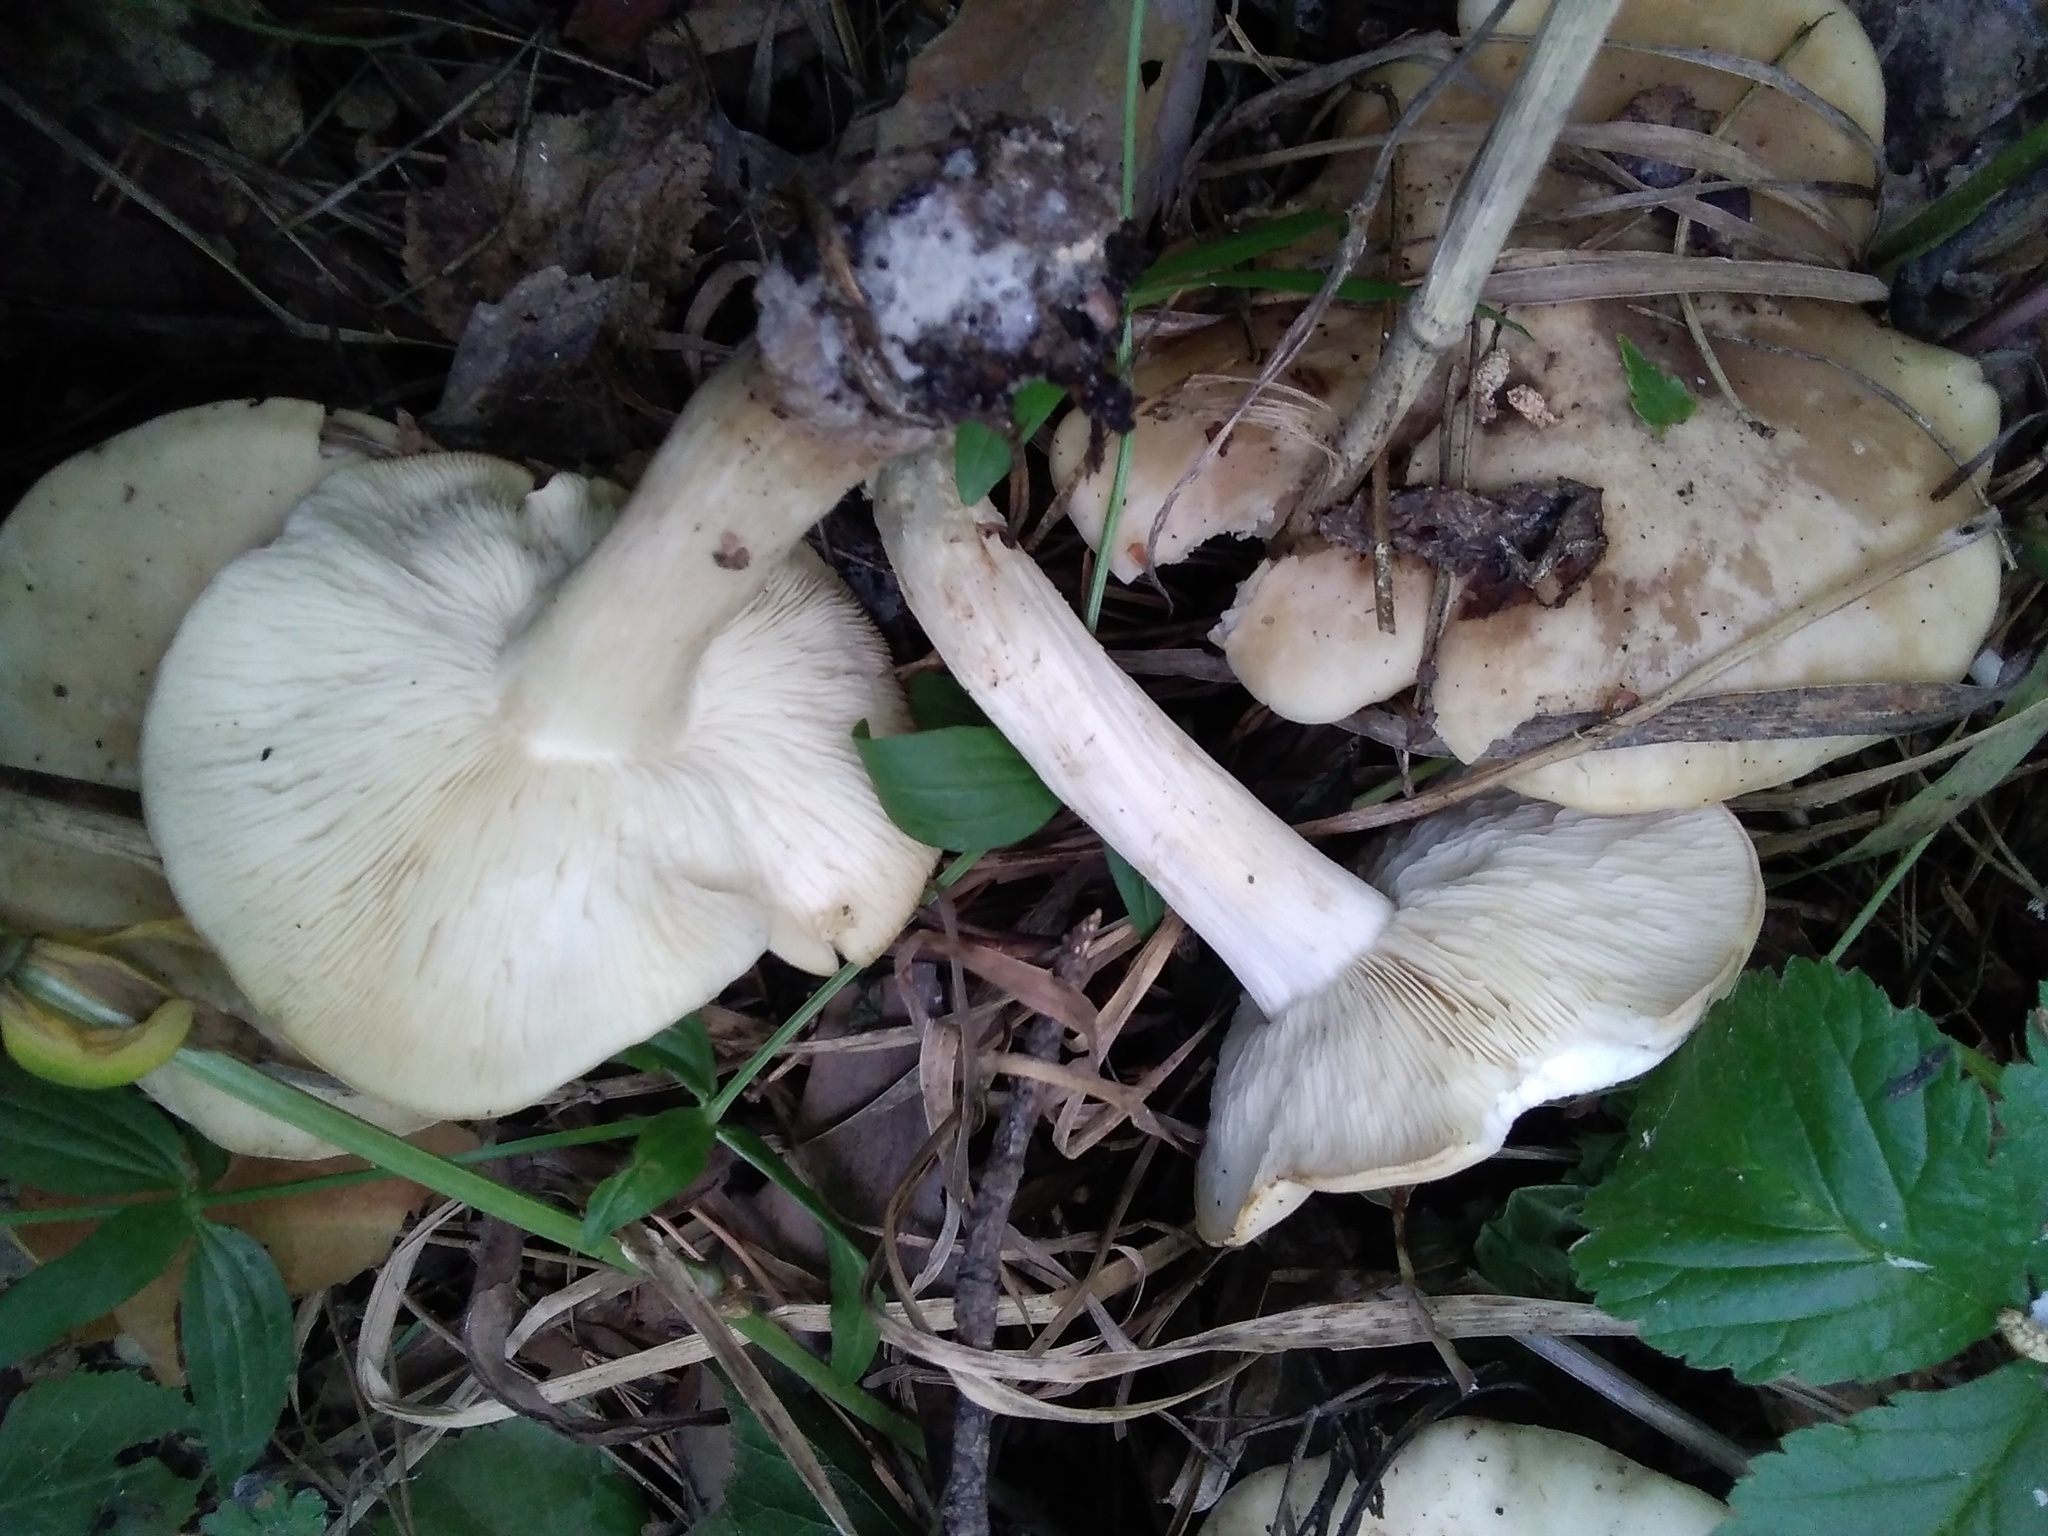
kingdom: Fungi
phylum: Basidiomycota
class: Agaricomycetes
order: Agaricales
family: Lyophyllaceae
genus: Calocybe
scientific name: Calocybe gambosa
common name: St. george's mushroom
